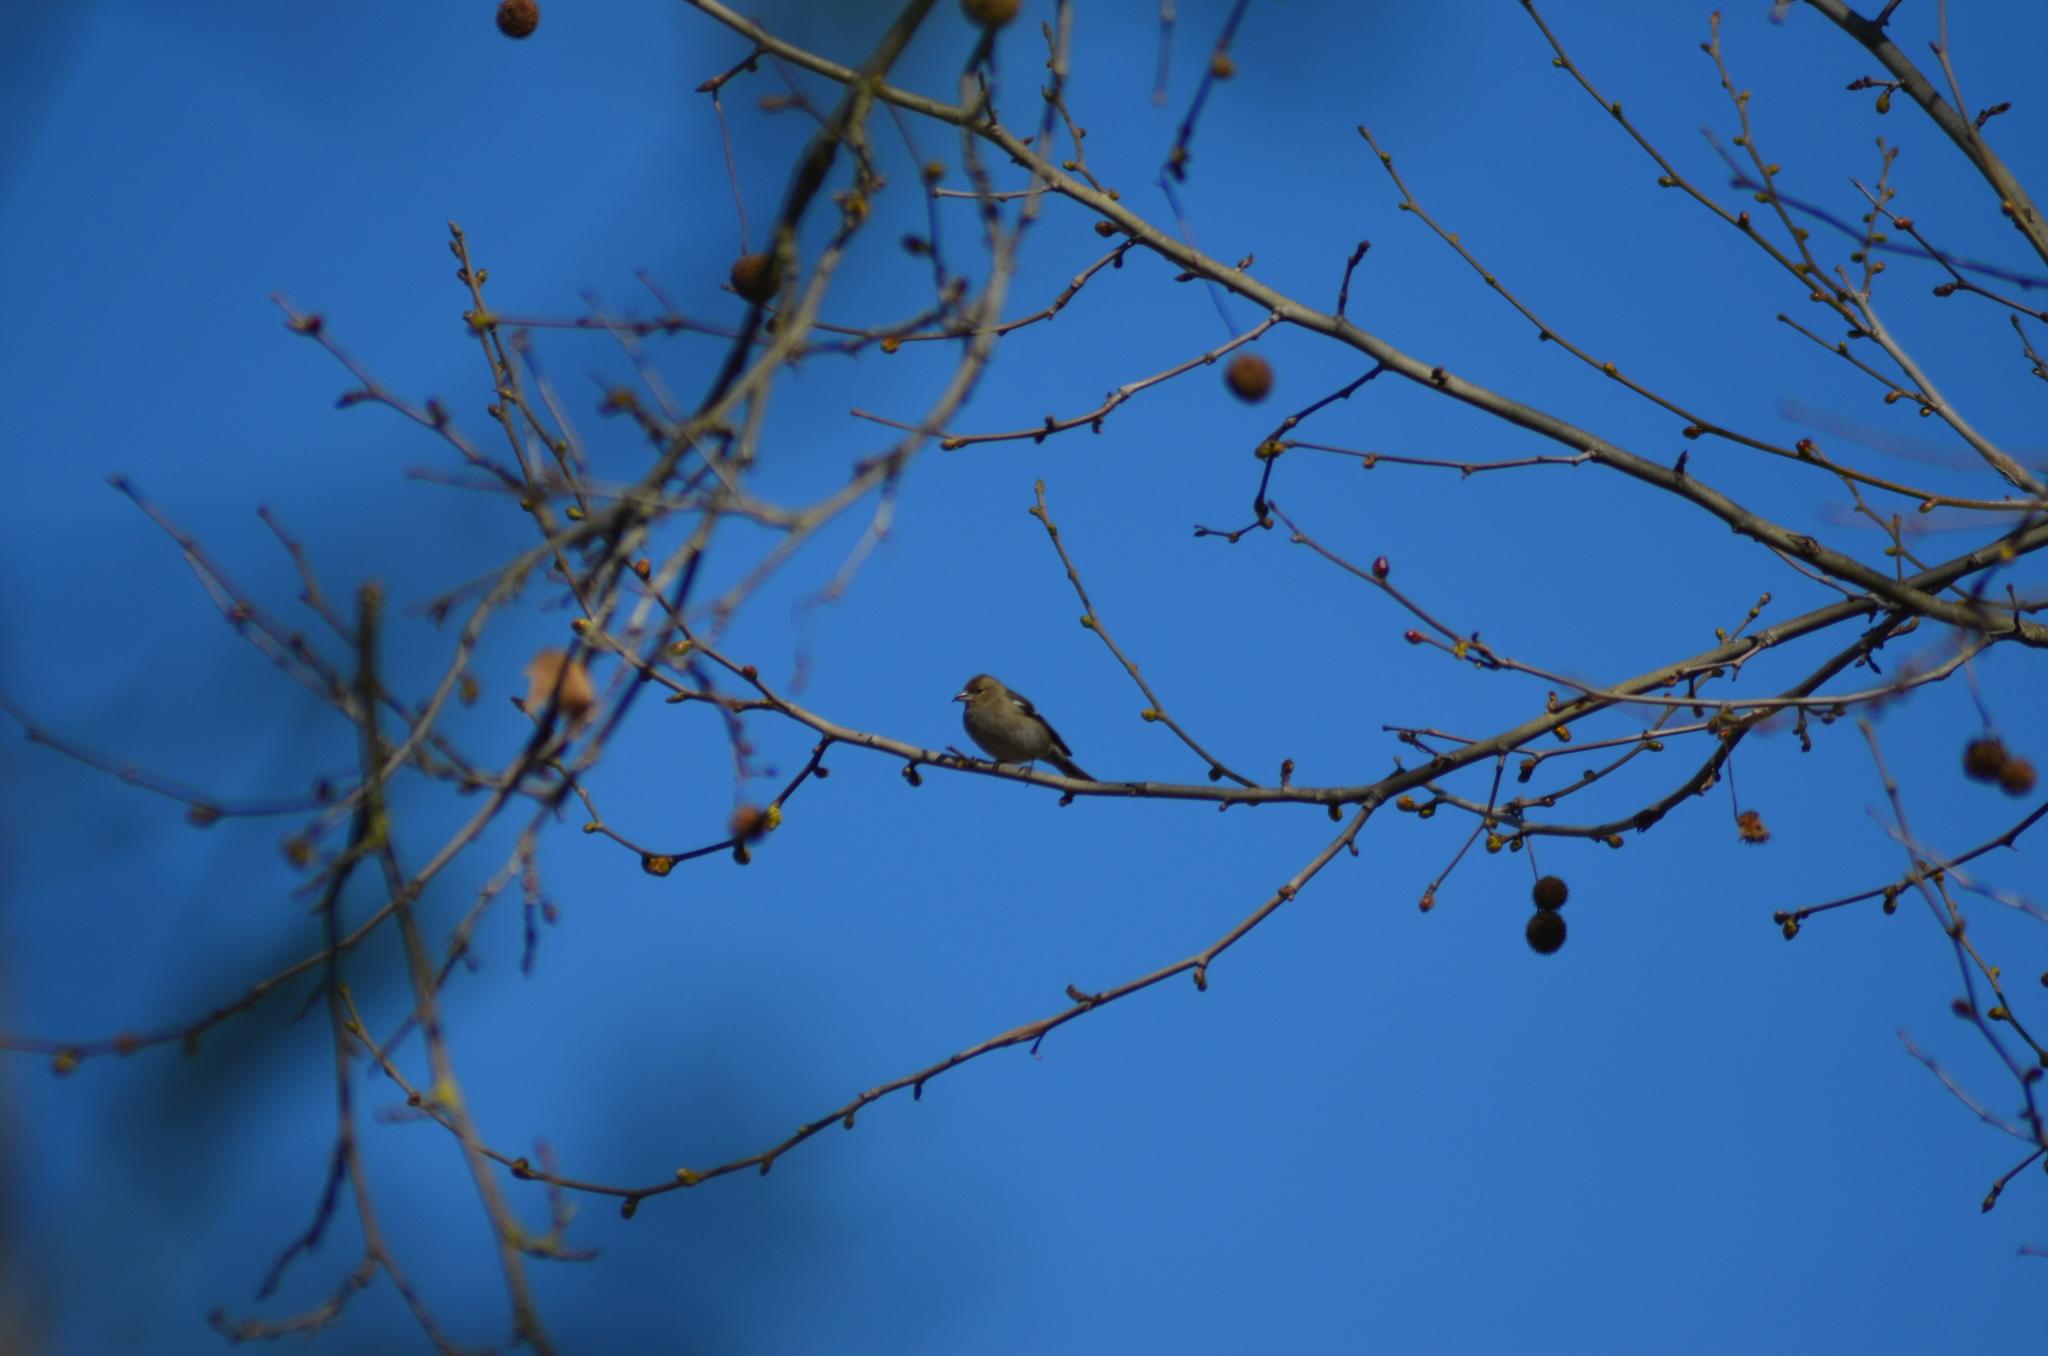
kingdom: Animalia
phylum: Chordata
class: Aves
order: Passeriformes
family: Fringillidae
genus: Fringilla
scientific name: Fringilla coelebs
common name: Common chaffinch
